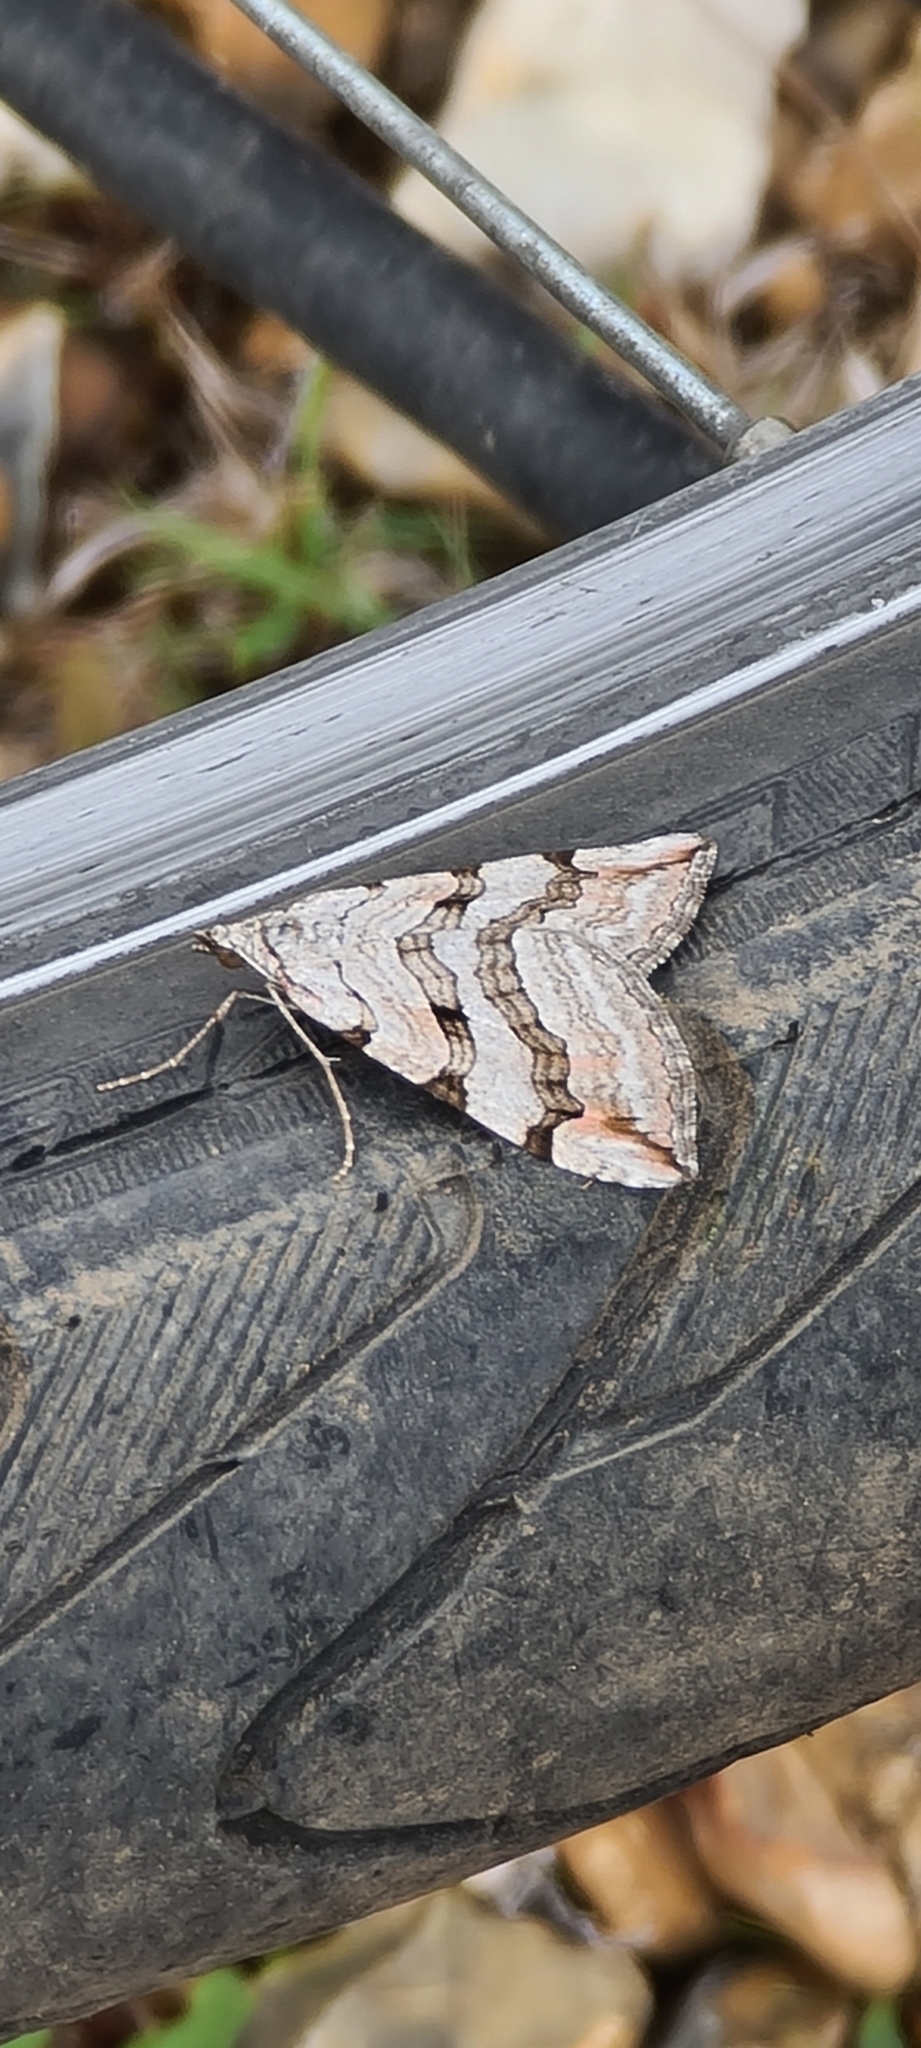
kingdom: Animalia
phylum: Arthropoda
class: Insecta
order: Lepidoptera
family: Geometridae
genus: Aplocera
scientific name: Aplocera plagiata
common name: Treble-bar
